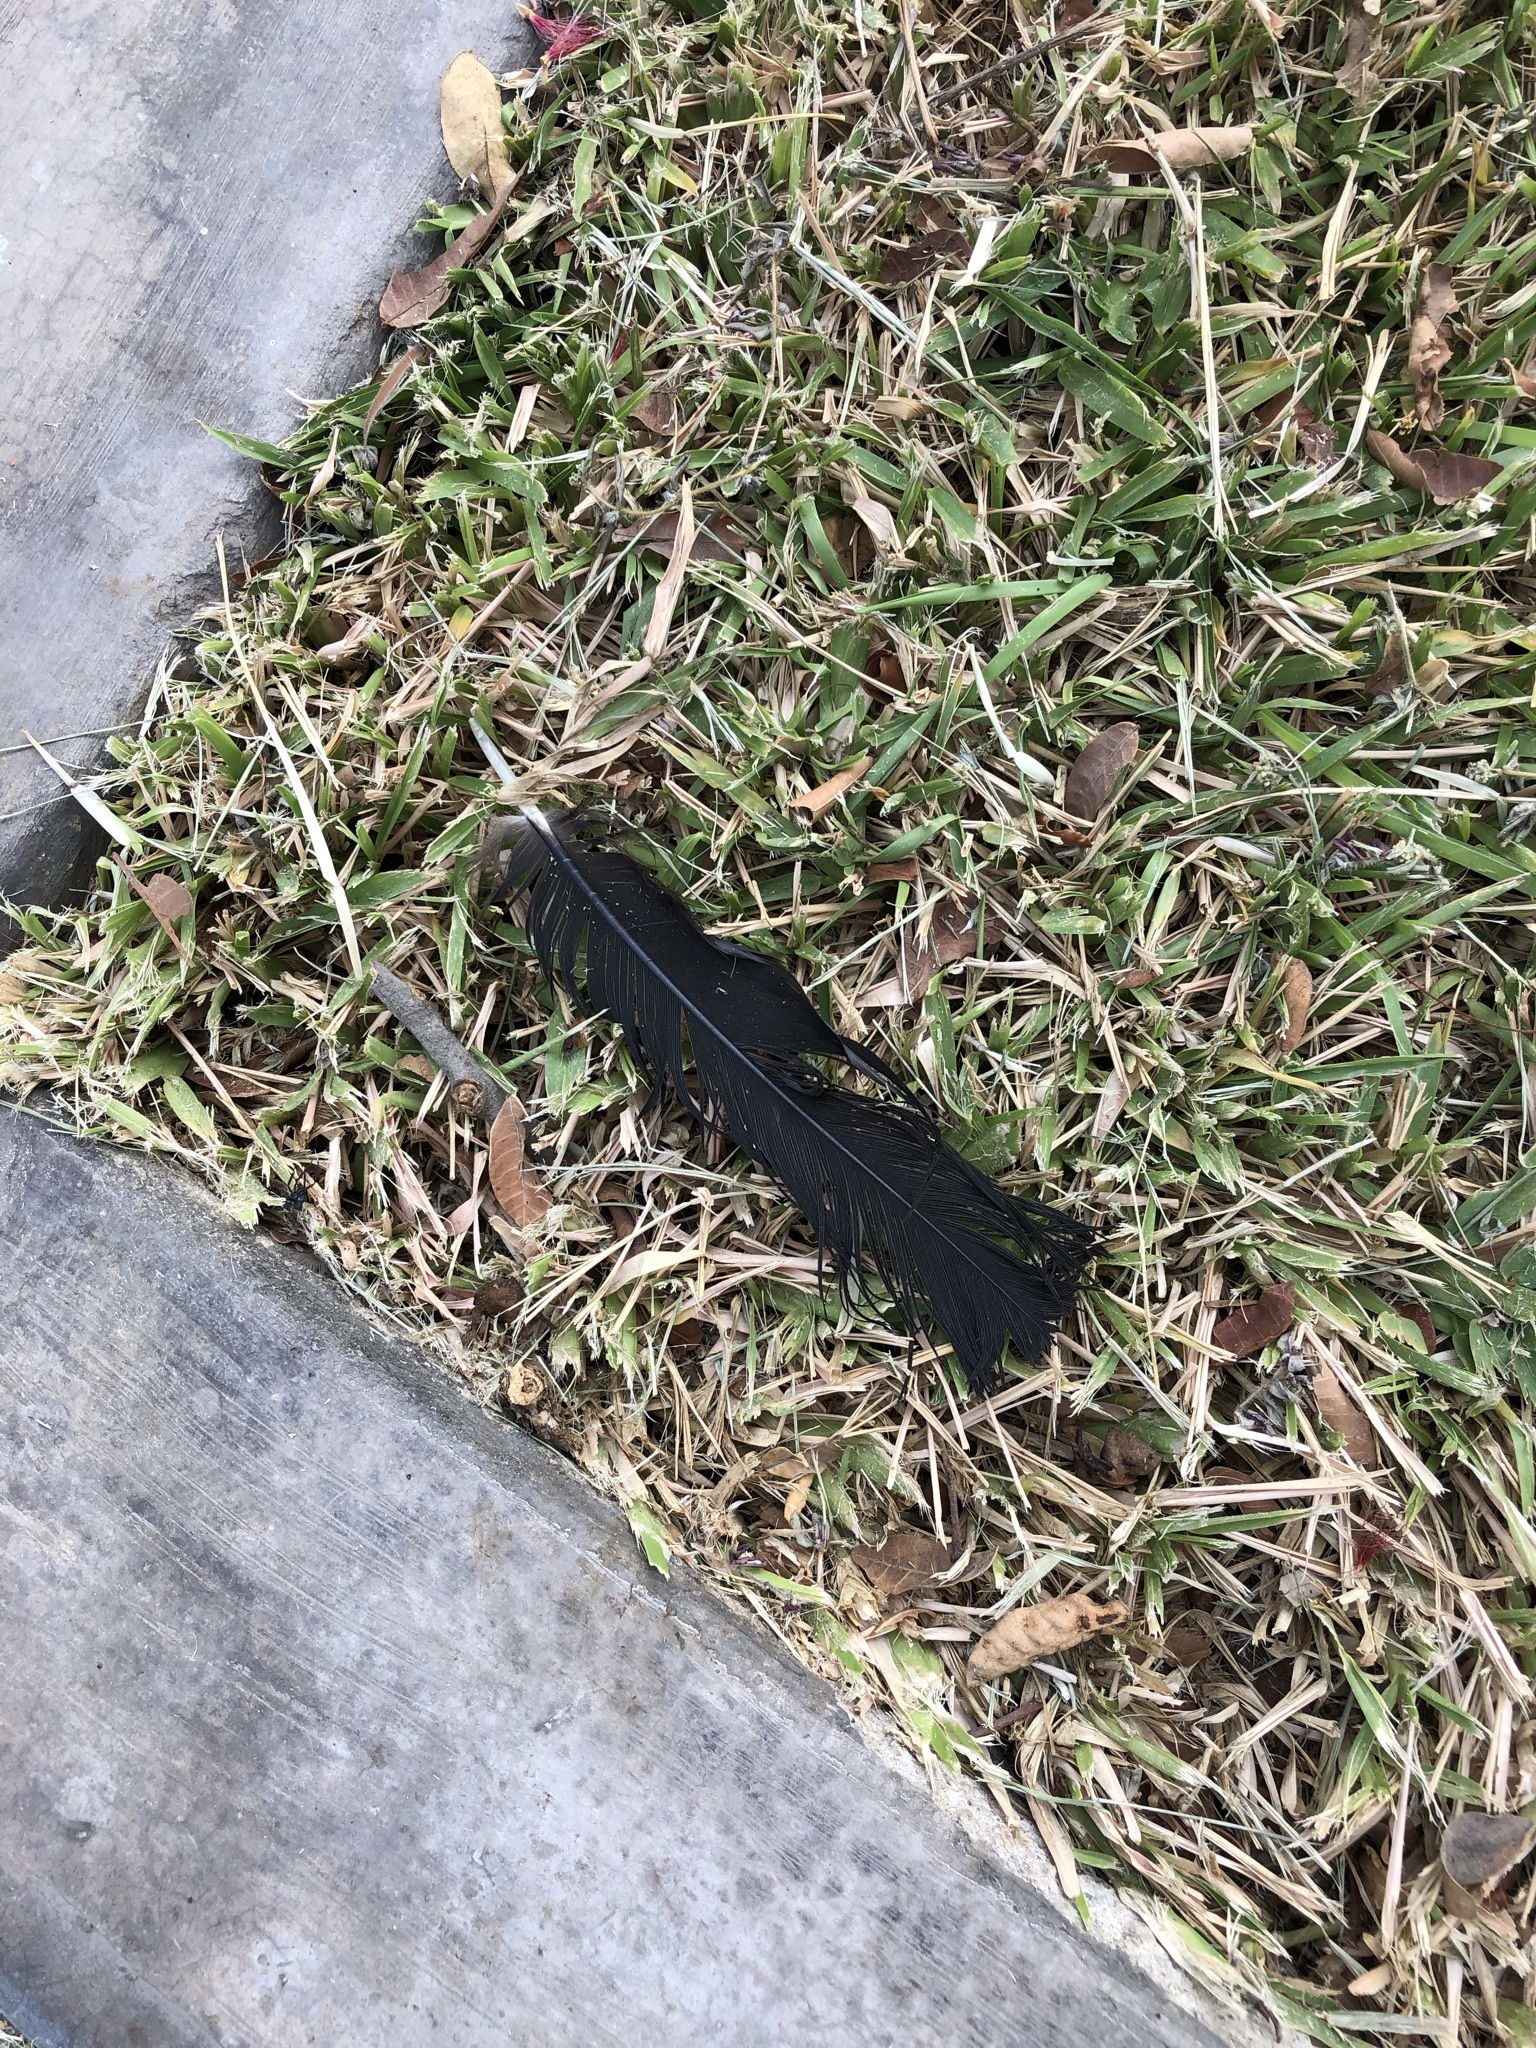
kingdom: Animalia
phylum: Chordata
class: Aves
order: Accipitriformes
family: Cathartidae
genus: Coragyps
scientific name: Coragyps atratus
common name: Black vulture
